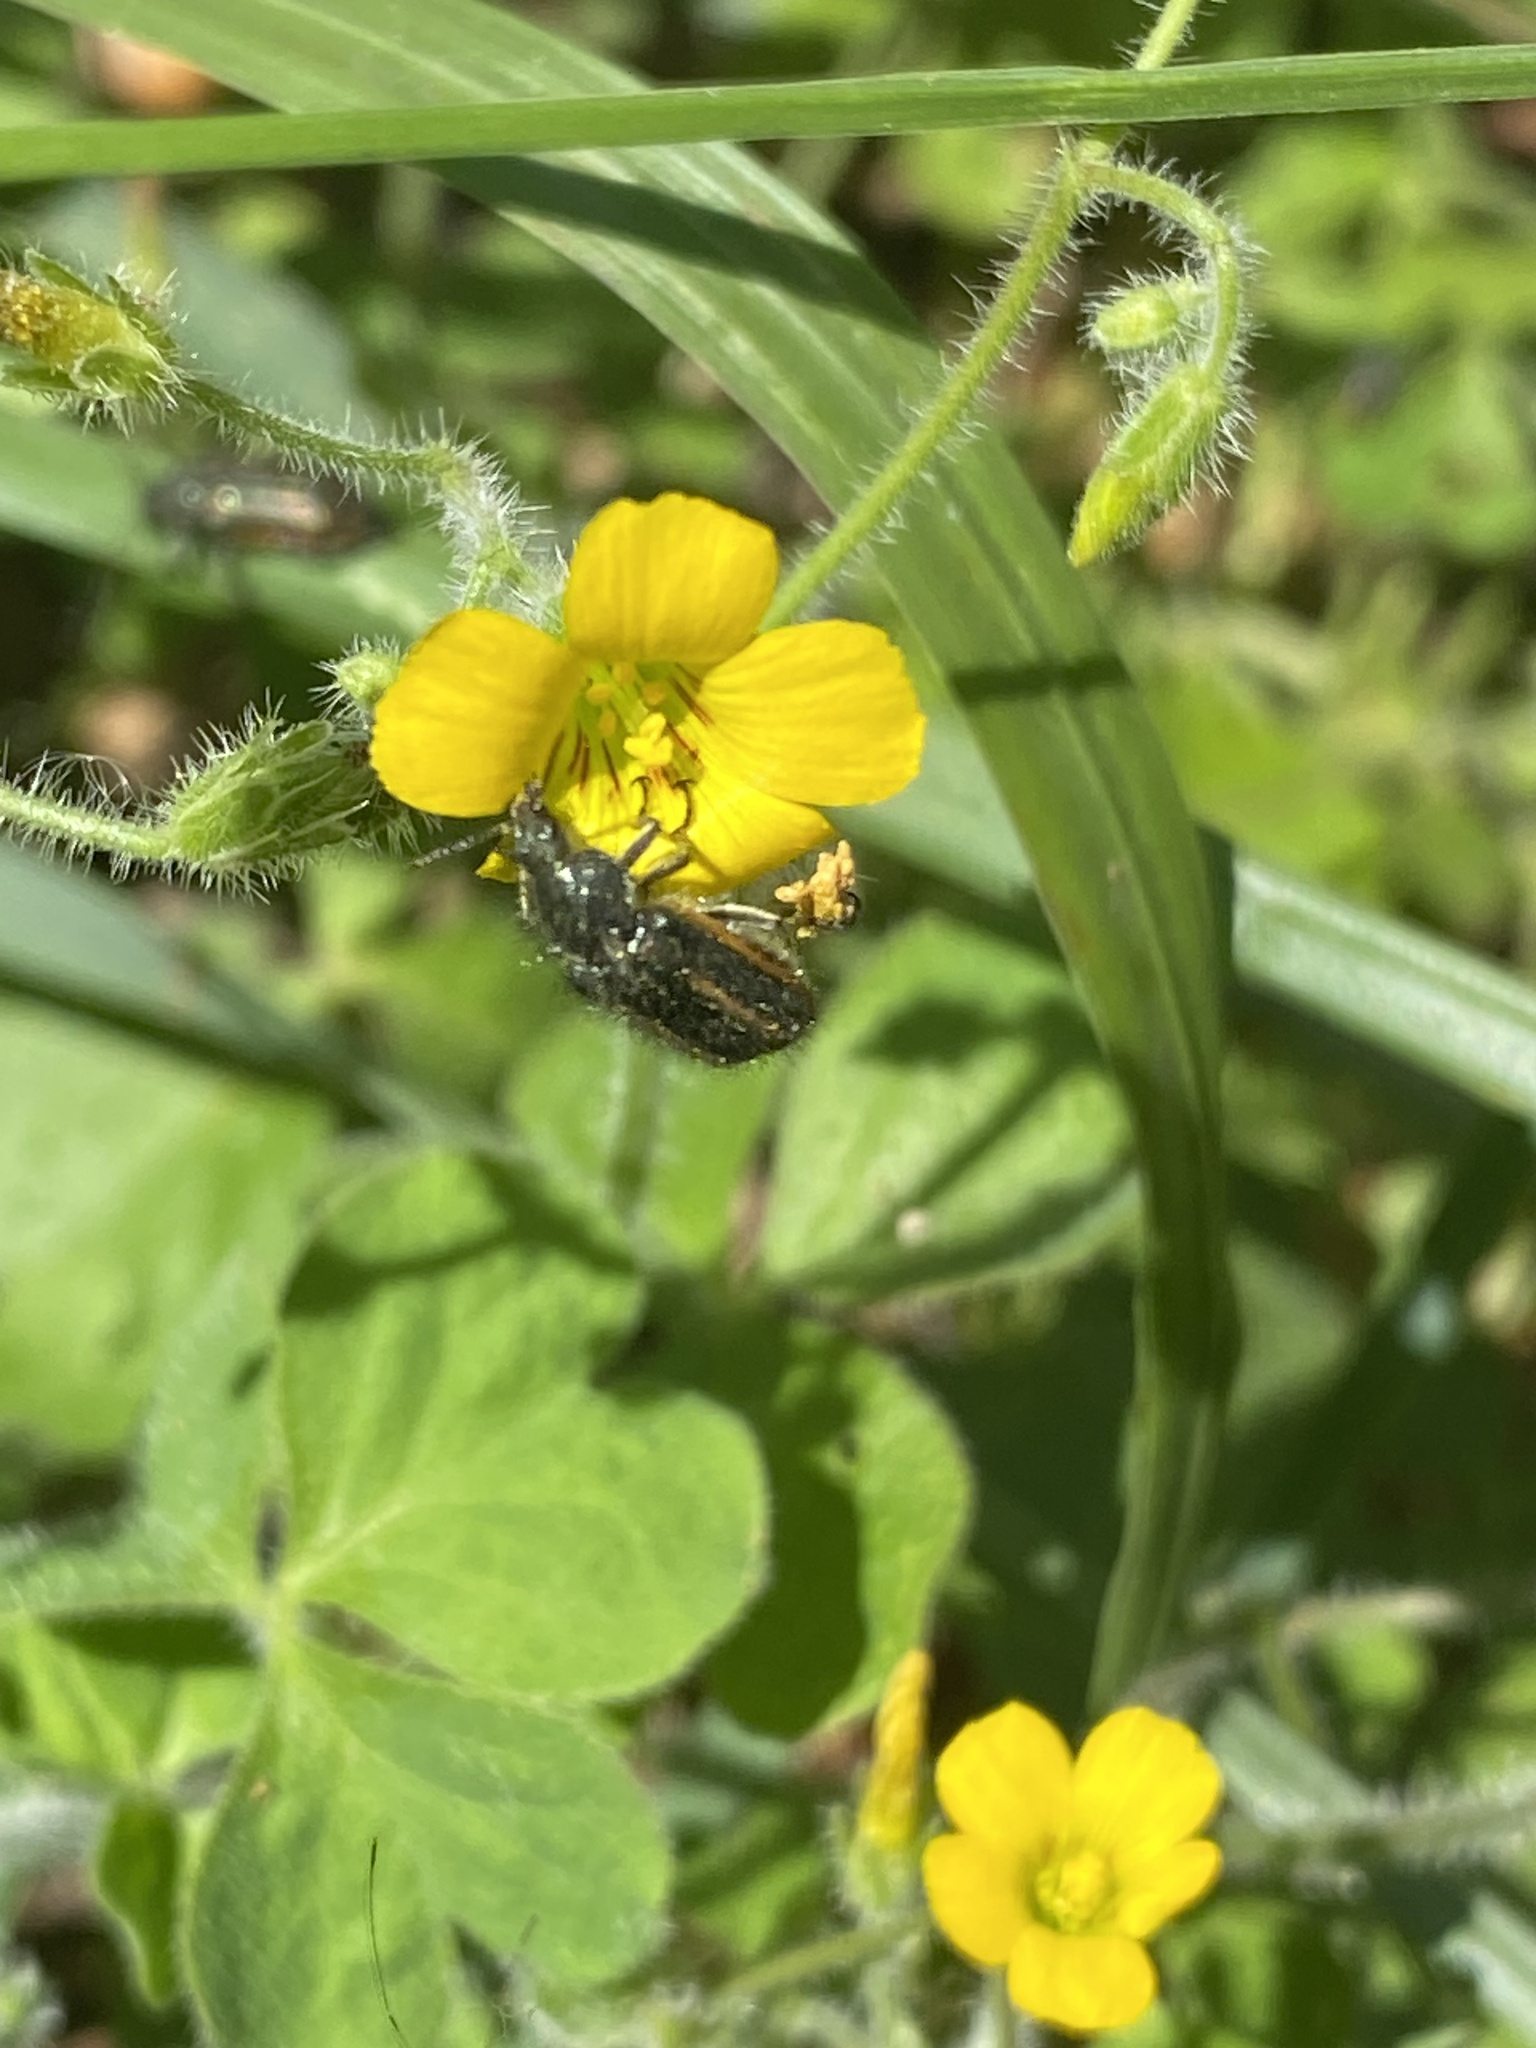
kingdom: Animalia
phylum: Arthropoda
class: Insecta
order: Coleoptera
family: Melyridae
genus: Astylus
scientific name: Astylus
